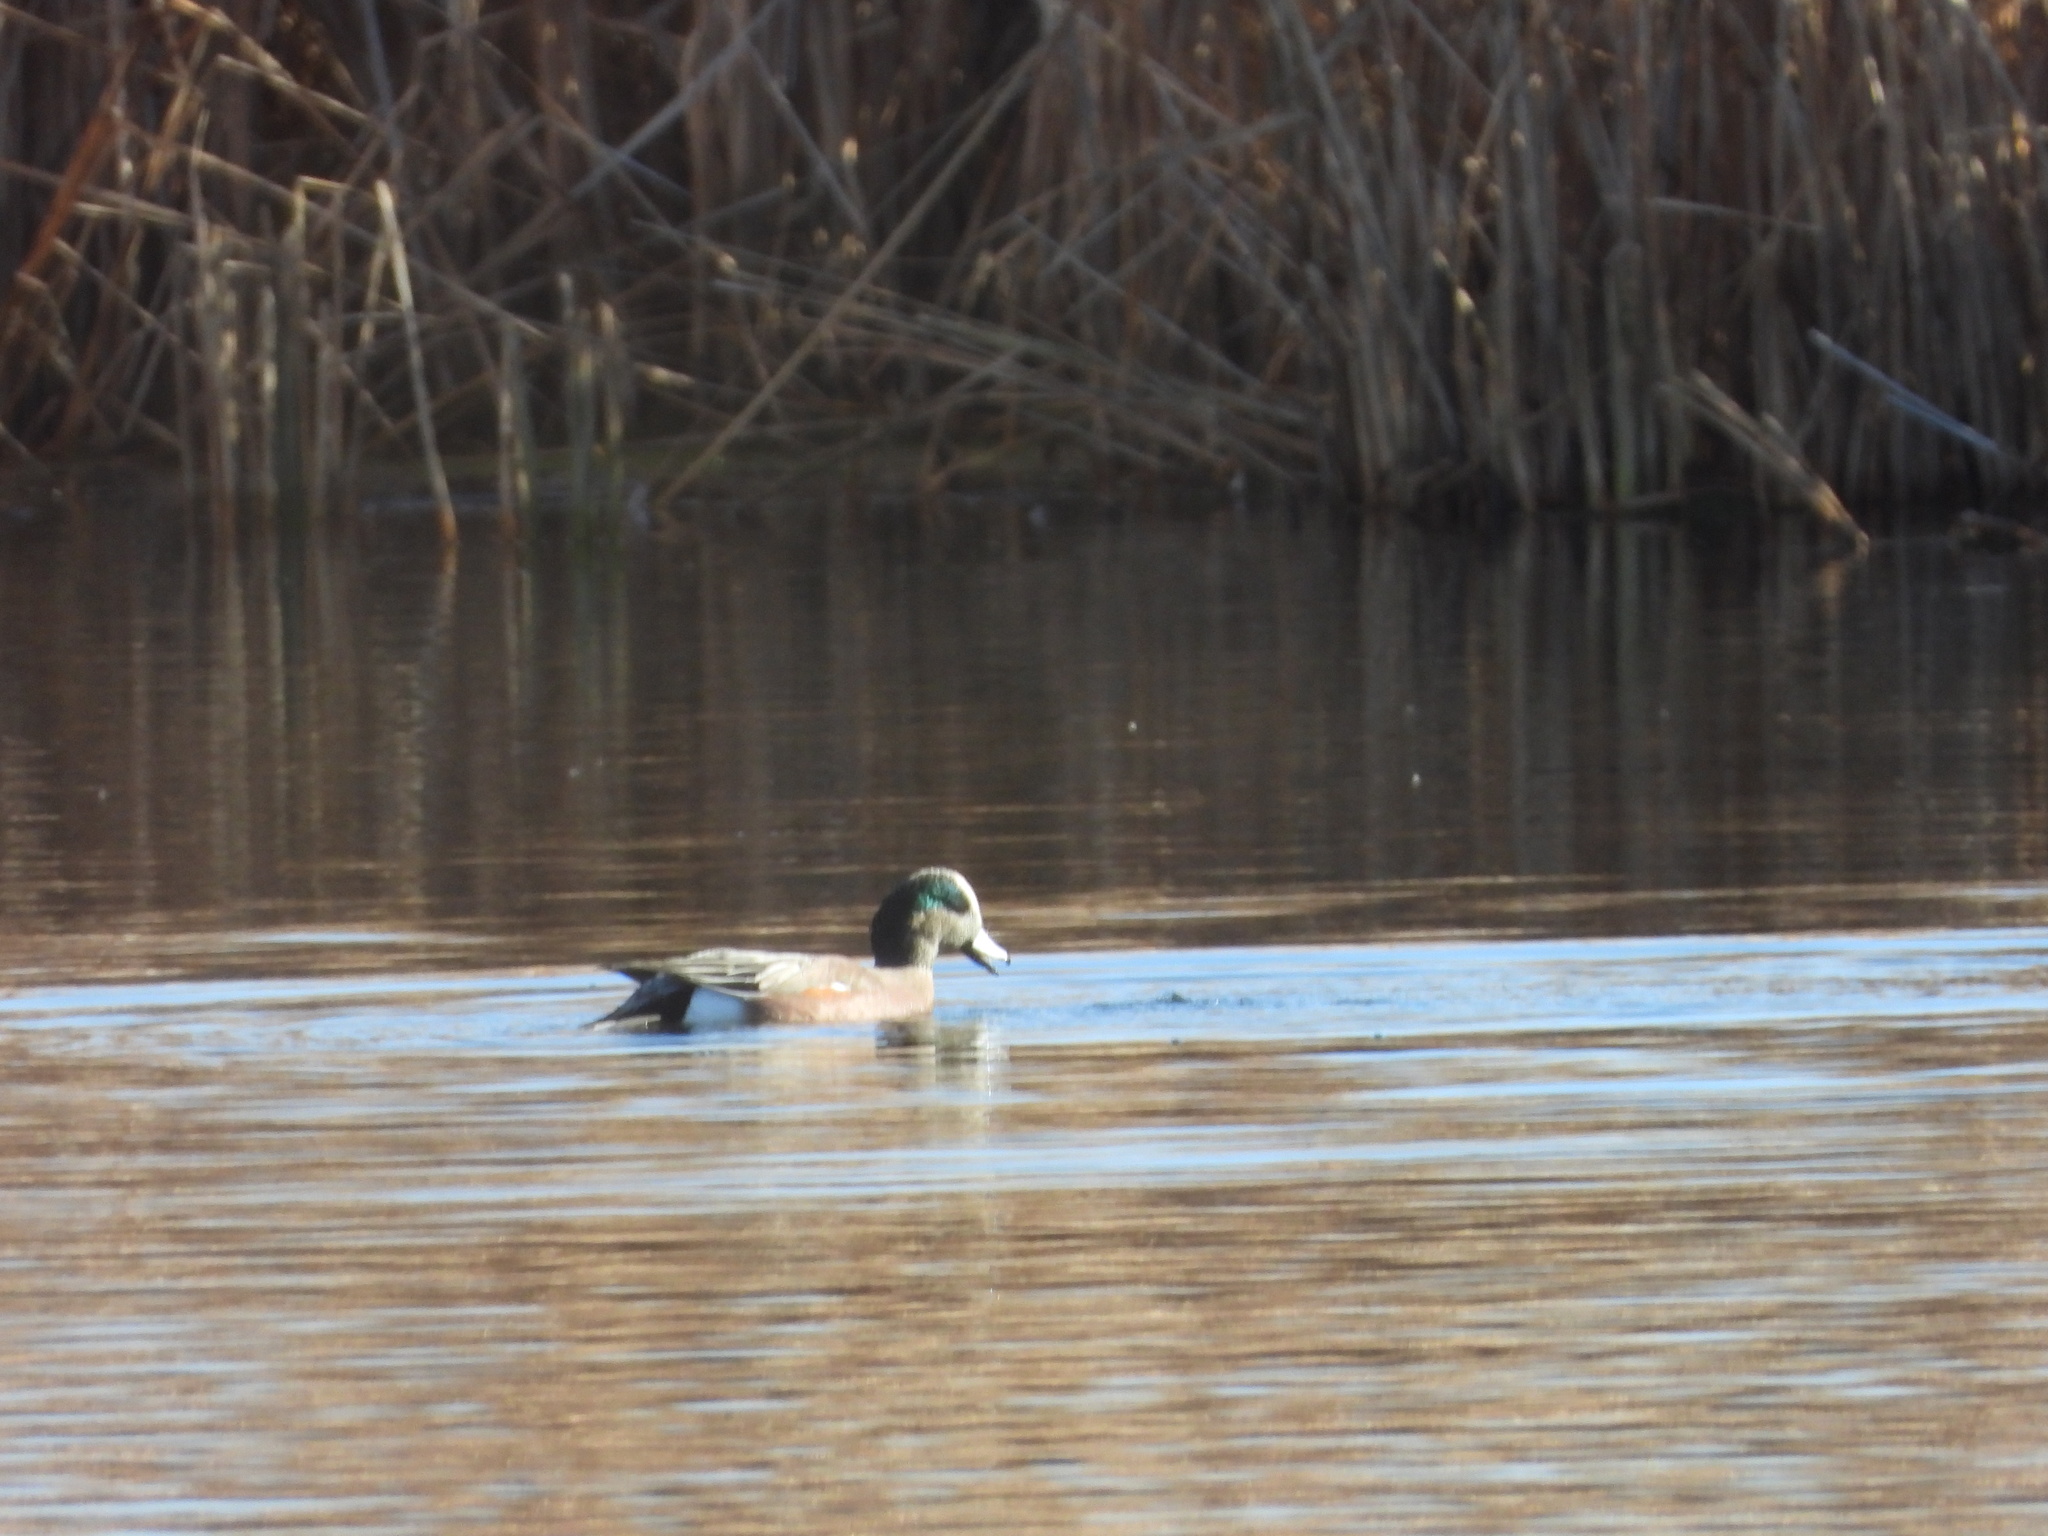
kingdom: Animalia
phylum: Chordata
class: Aves
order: Anseriformes
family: Anatidae
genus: Mareca
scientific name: Mareca americana
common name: American wigeon
